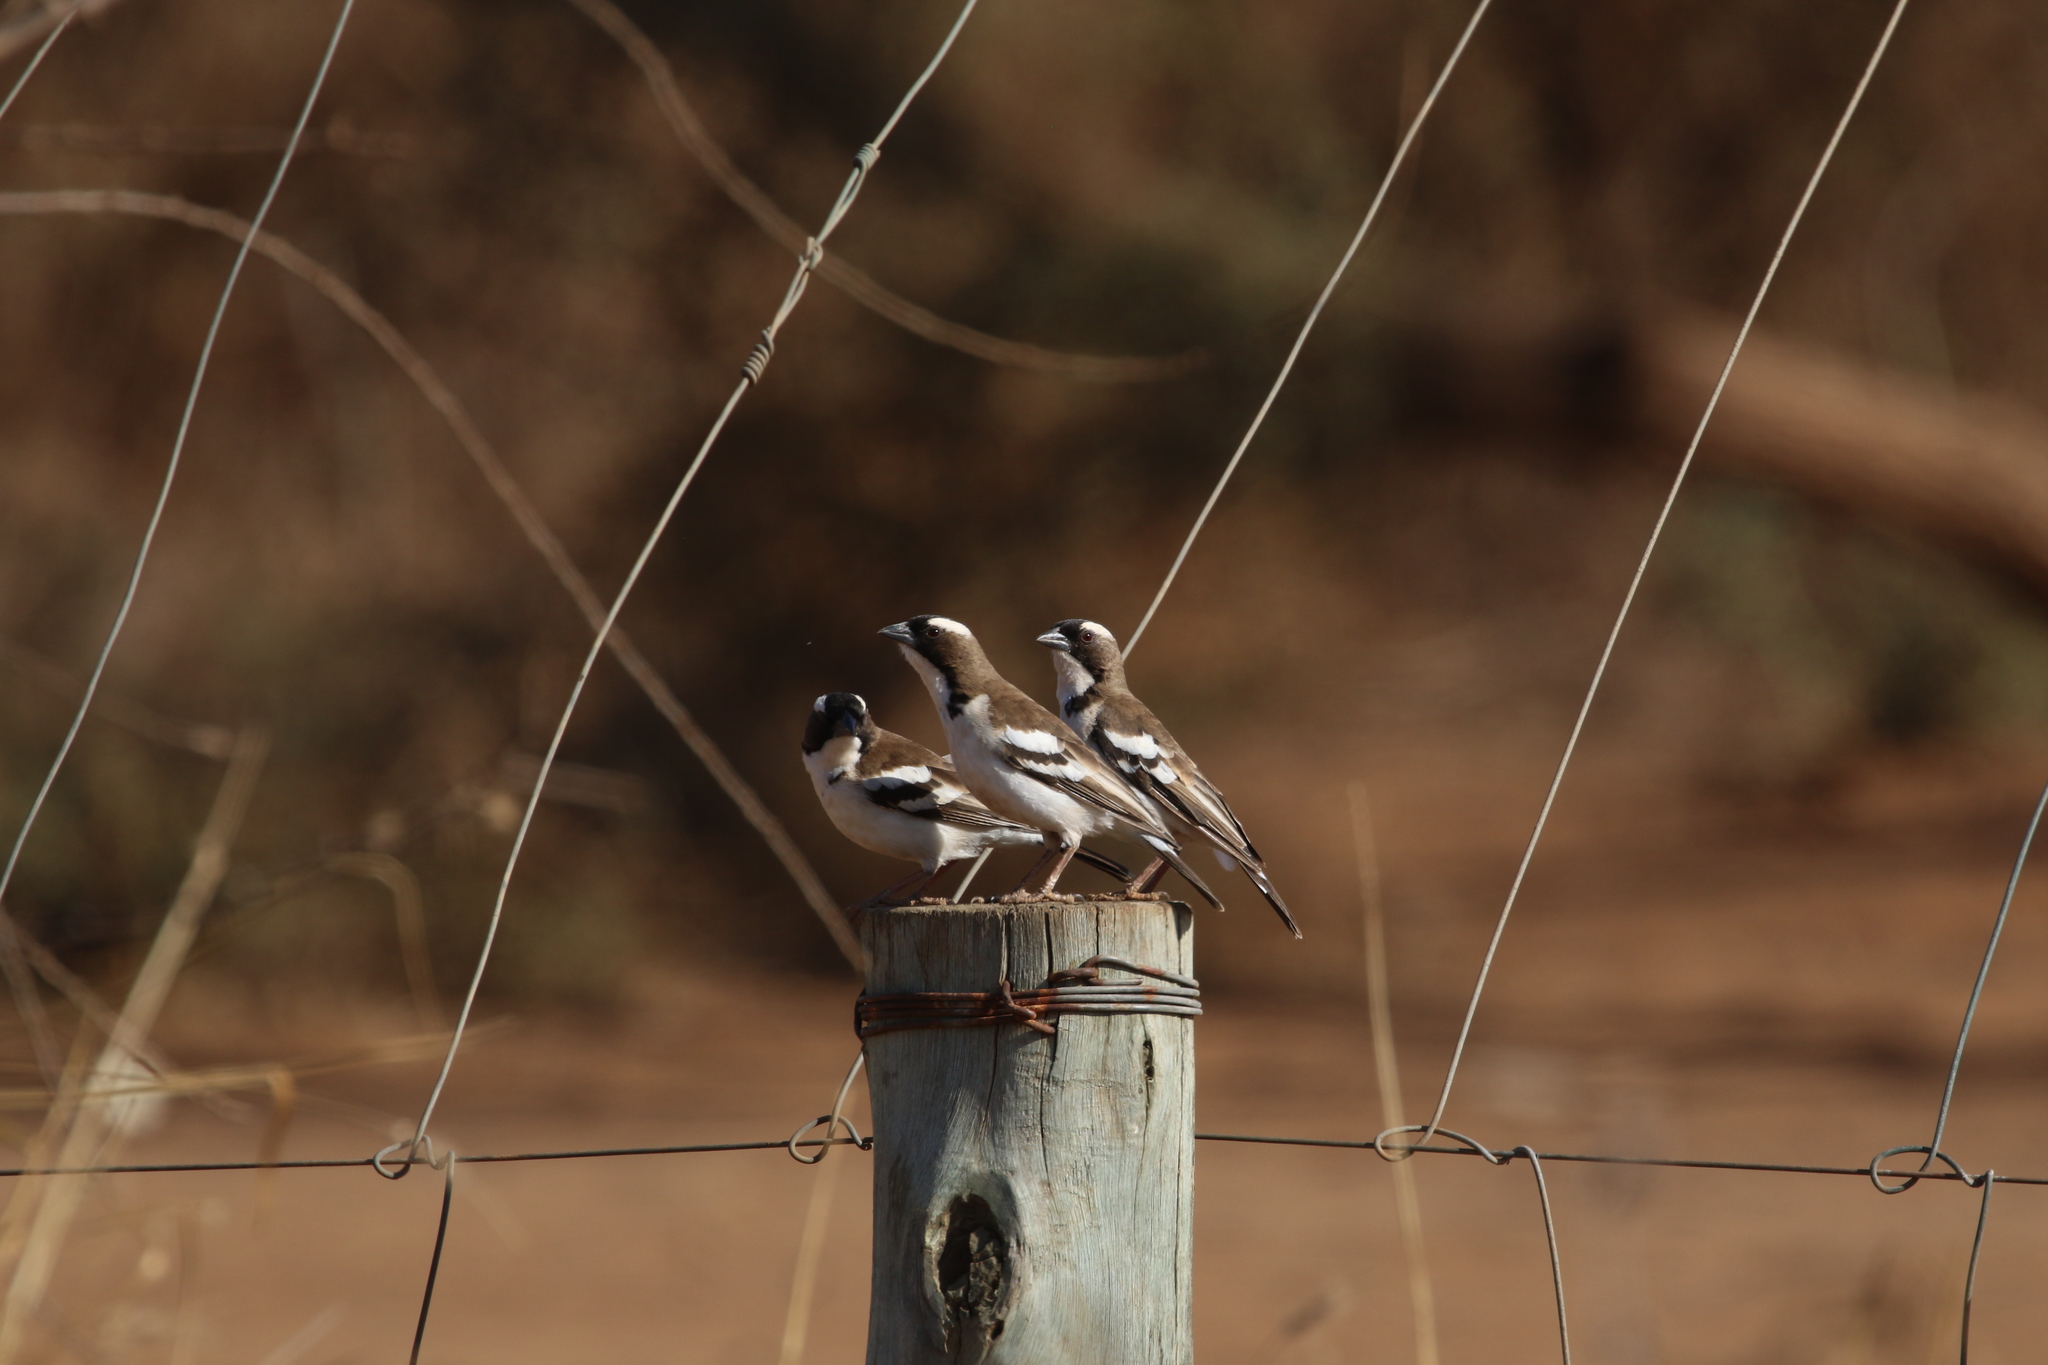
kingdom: Animalia
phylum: Chordata
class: Aves
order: Passeriformes
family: Passeridae
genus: Plocepasser
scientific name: Plocepasser mahali
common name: White-browed sparrow-weaver
